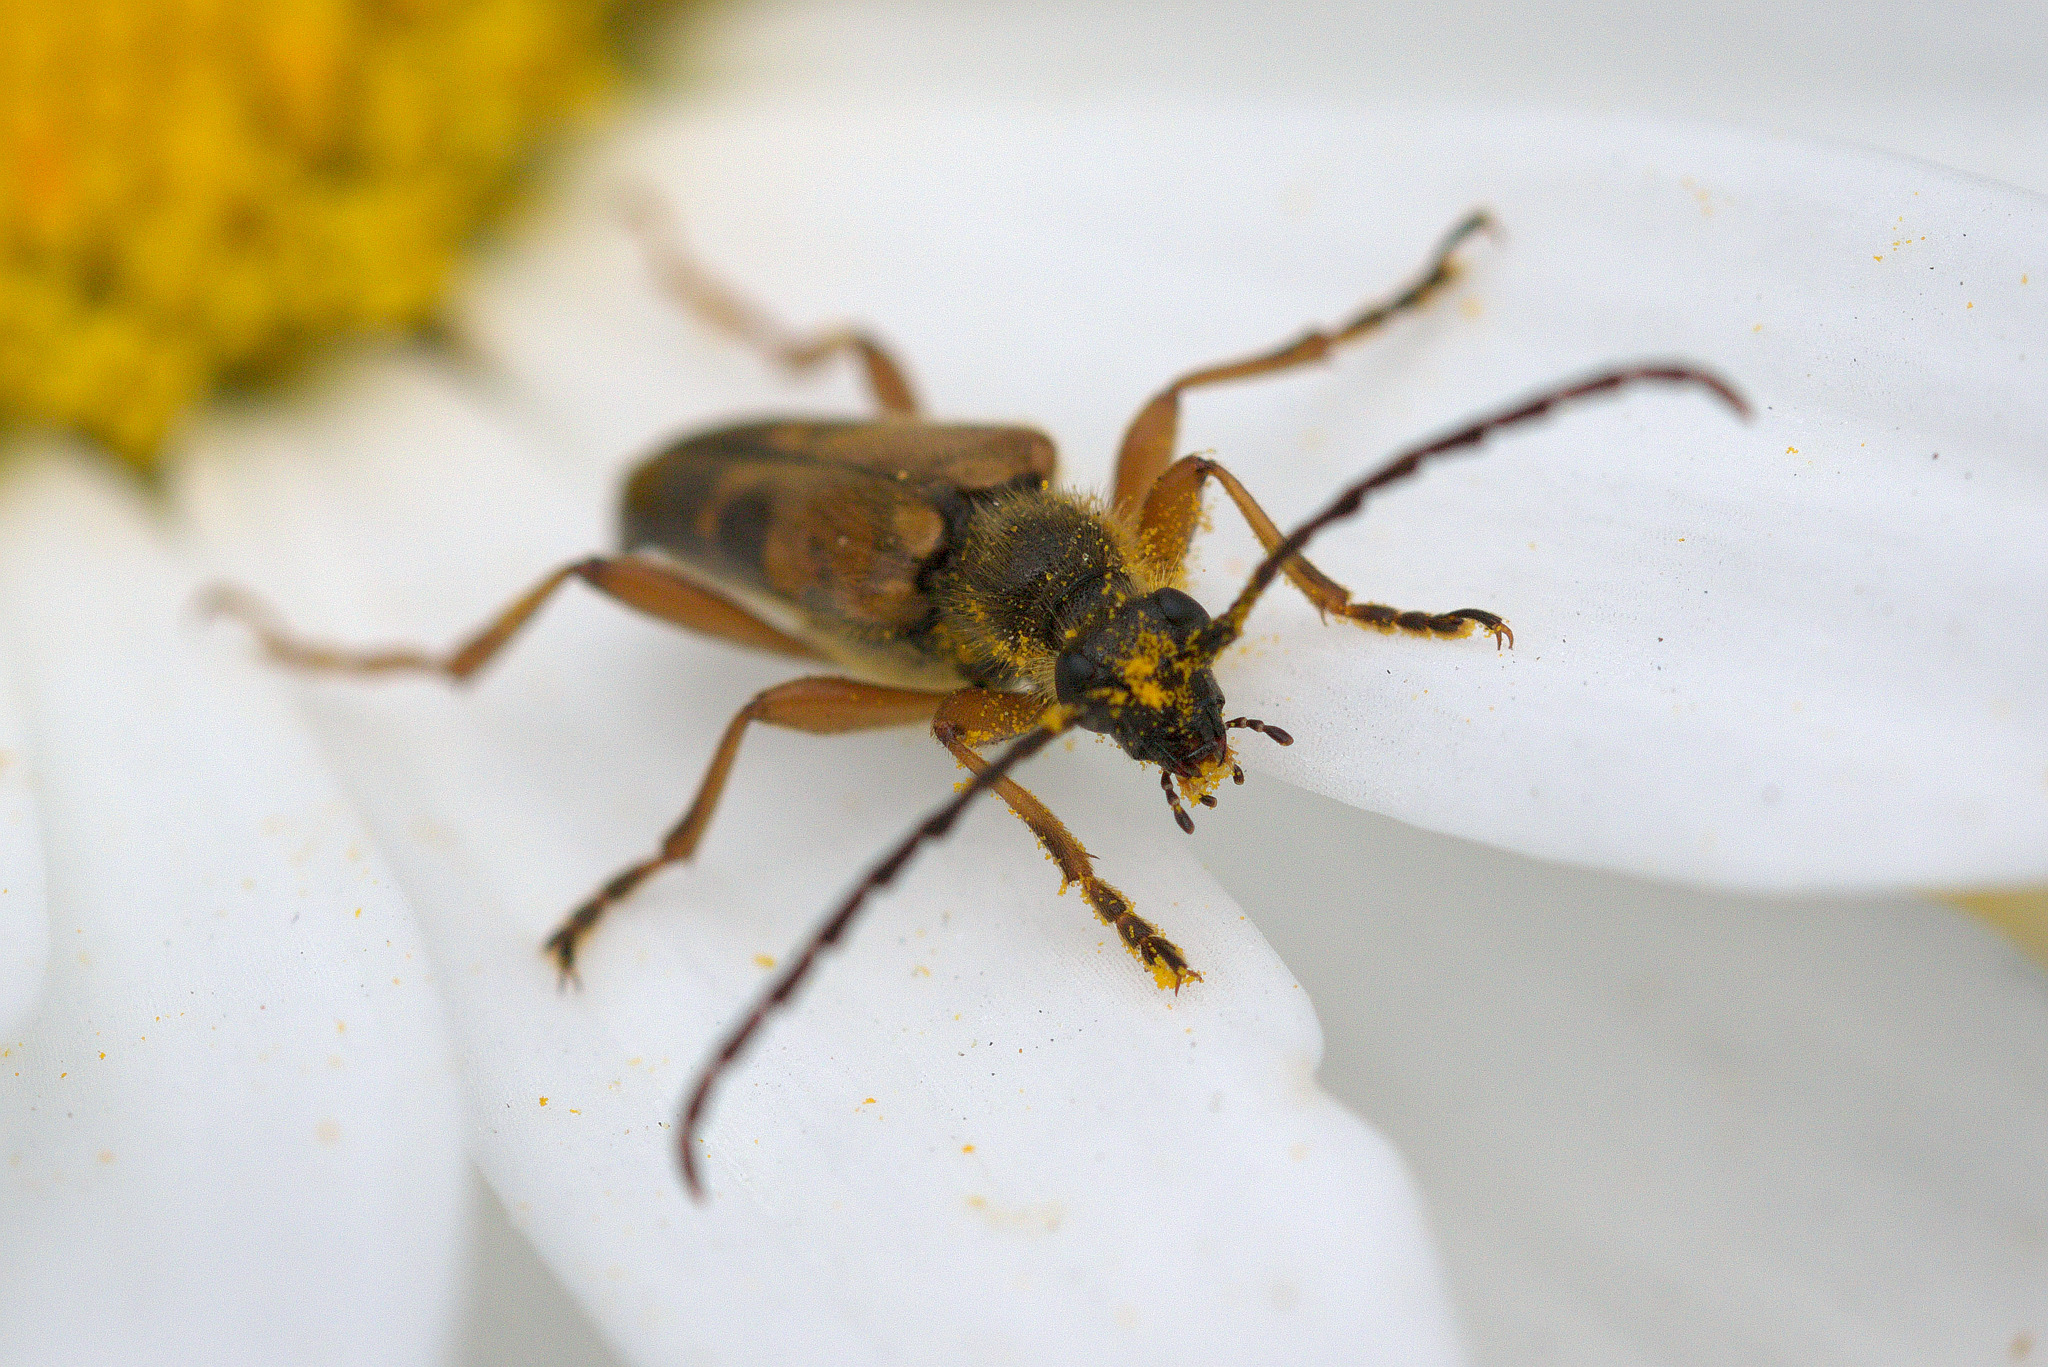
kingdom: Animalia
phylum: Arthropoda
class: Insecta
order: Coleoptera
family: Cerambycidae
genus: Xestoleptura
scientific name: Xestoleptura crassipes
